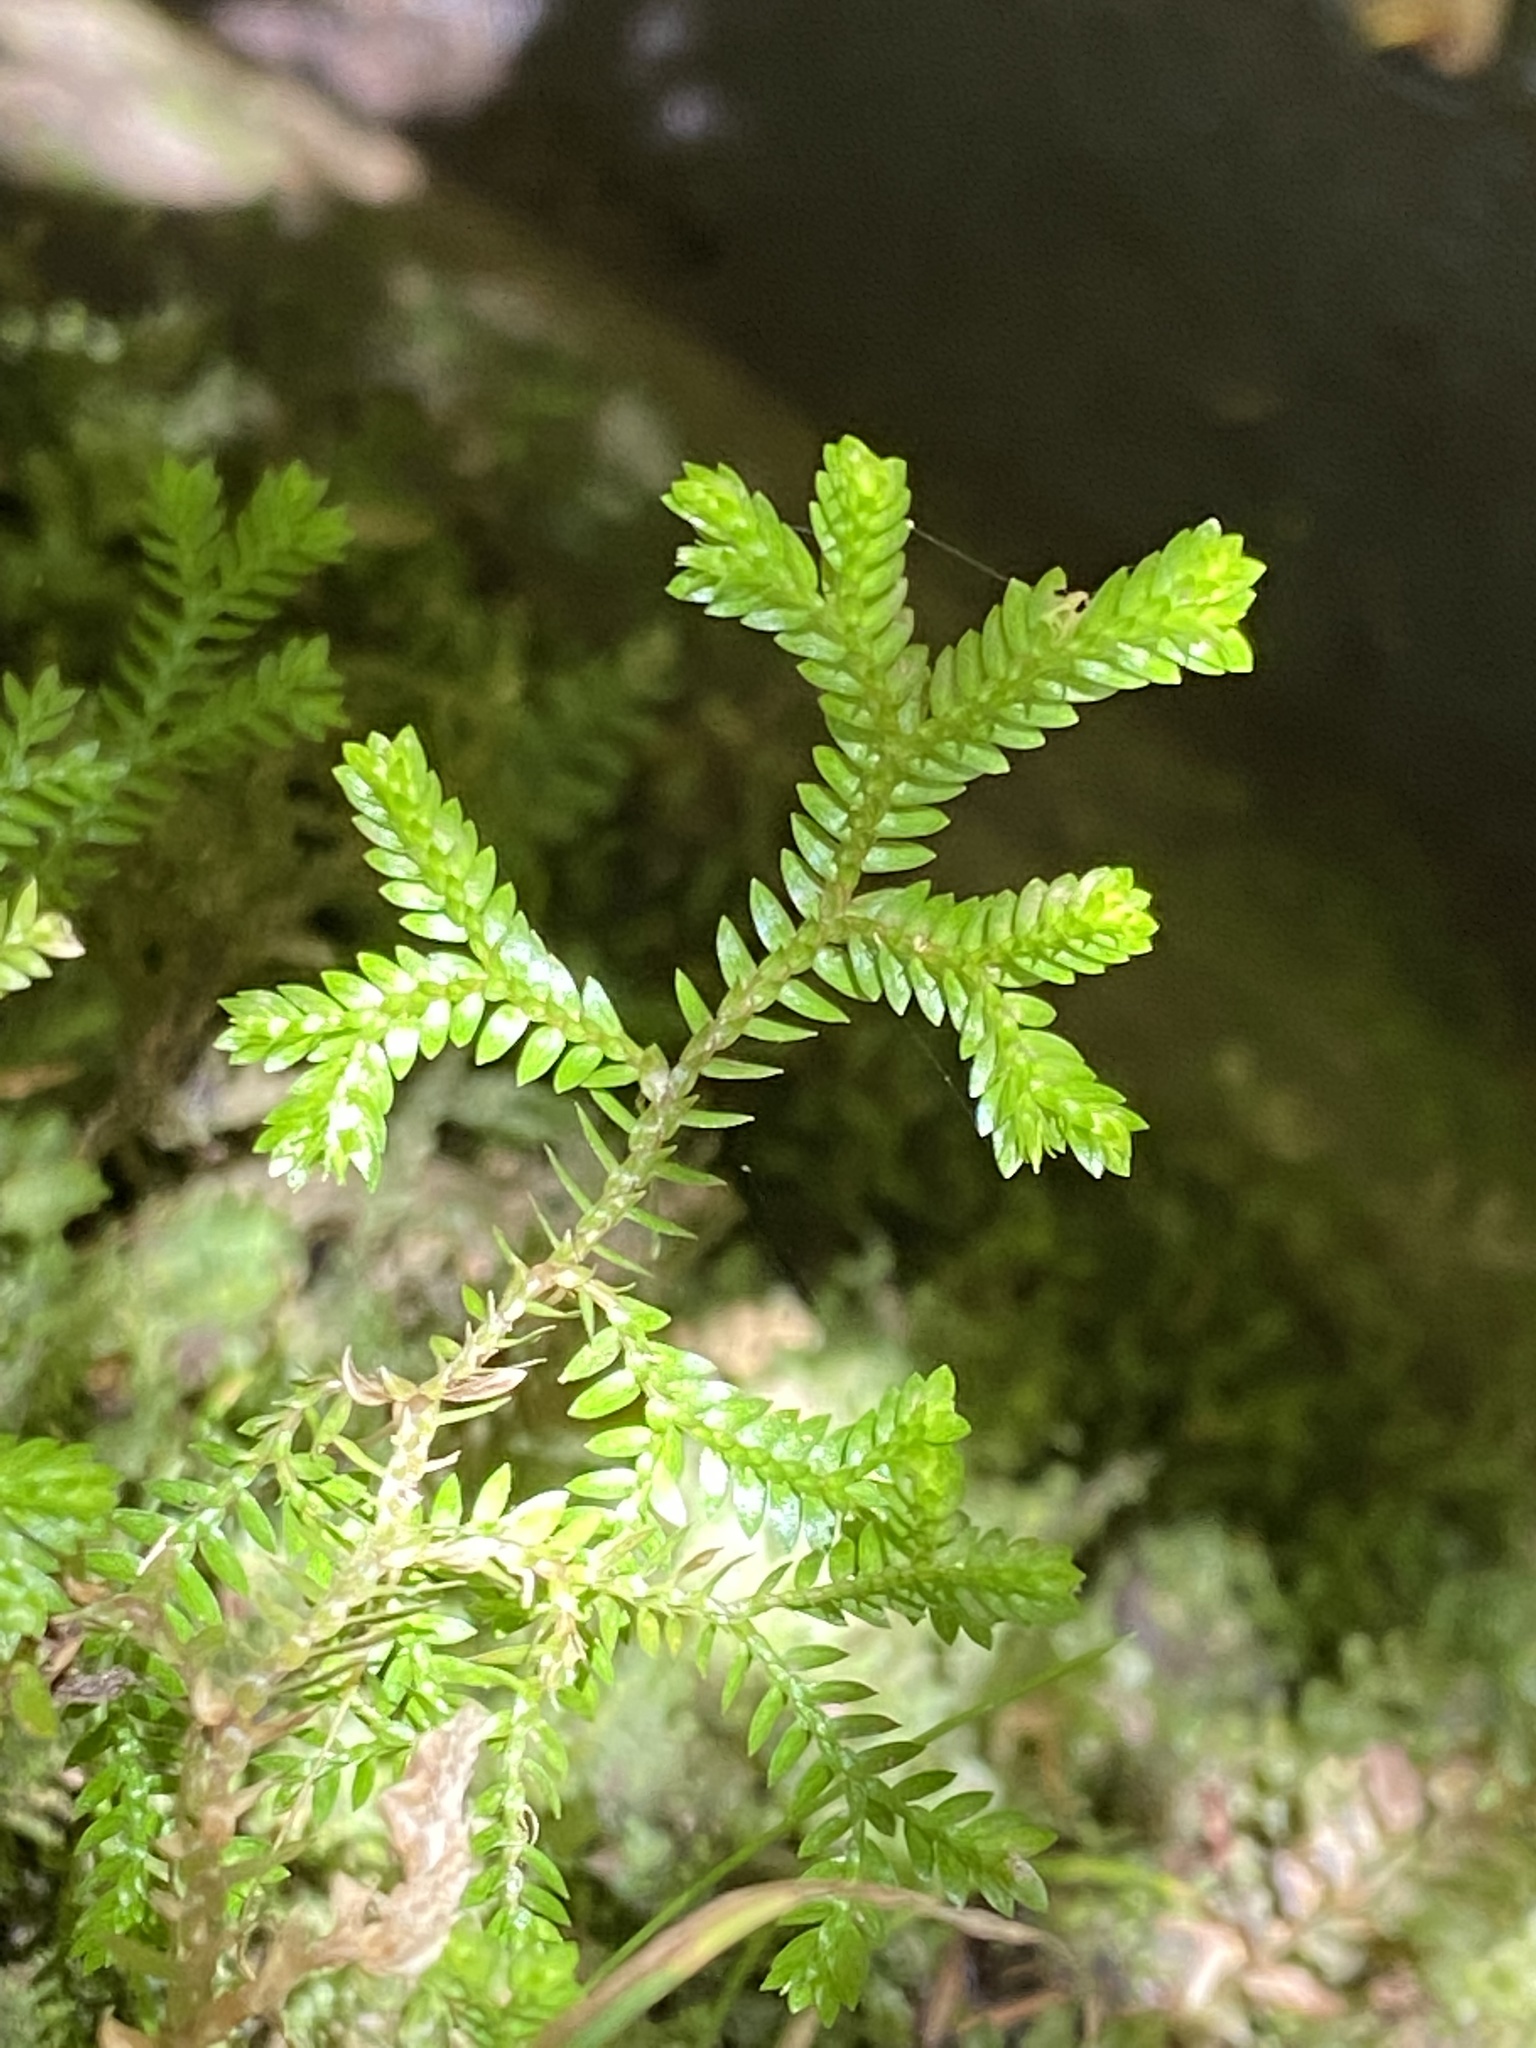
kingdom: Plantae
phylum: Tracheophyta
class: Lycopodiopsida
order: Selaginellales
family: Selaginellaceae
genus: Selaginella
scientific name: Selaginella kraussiana
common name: Krauss' spikemoss
